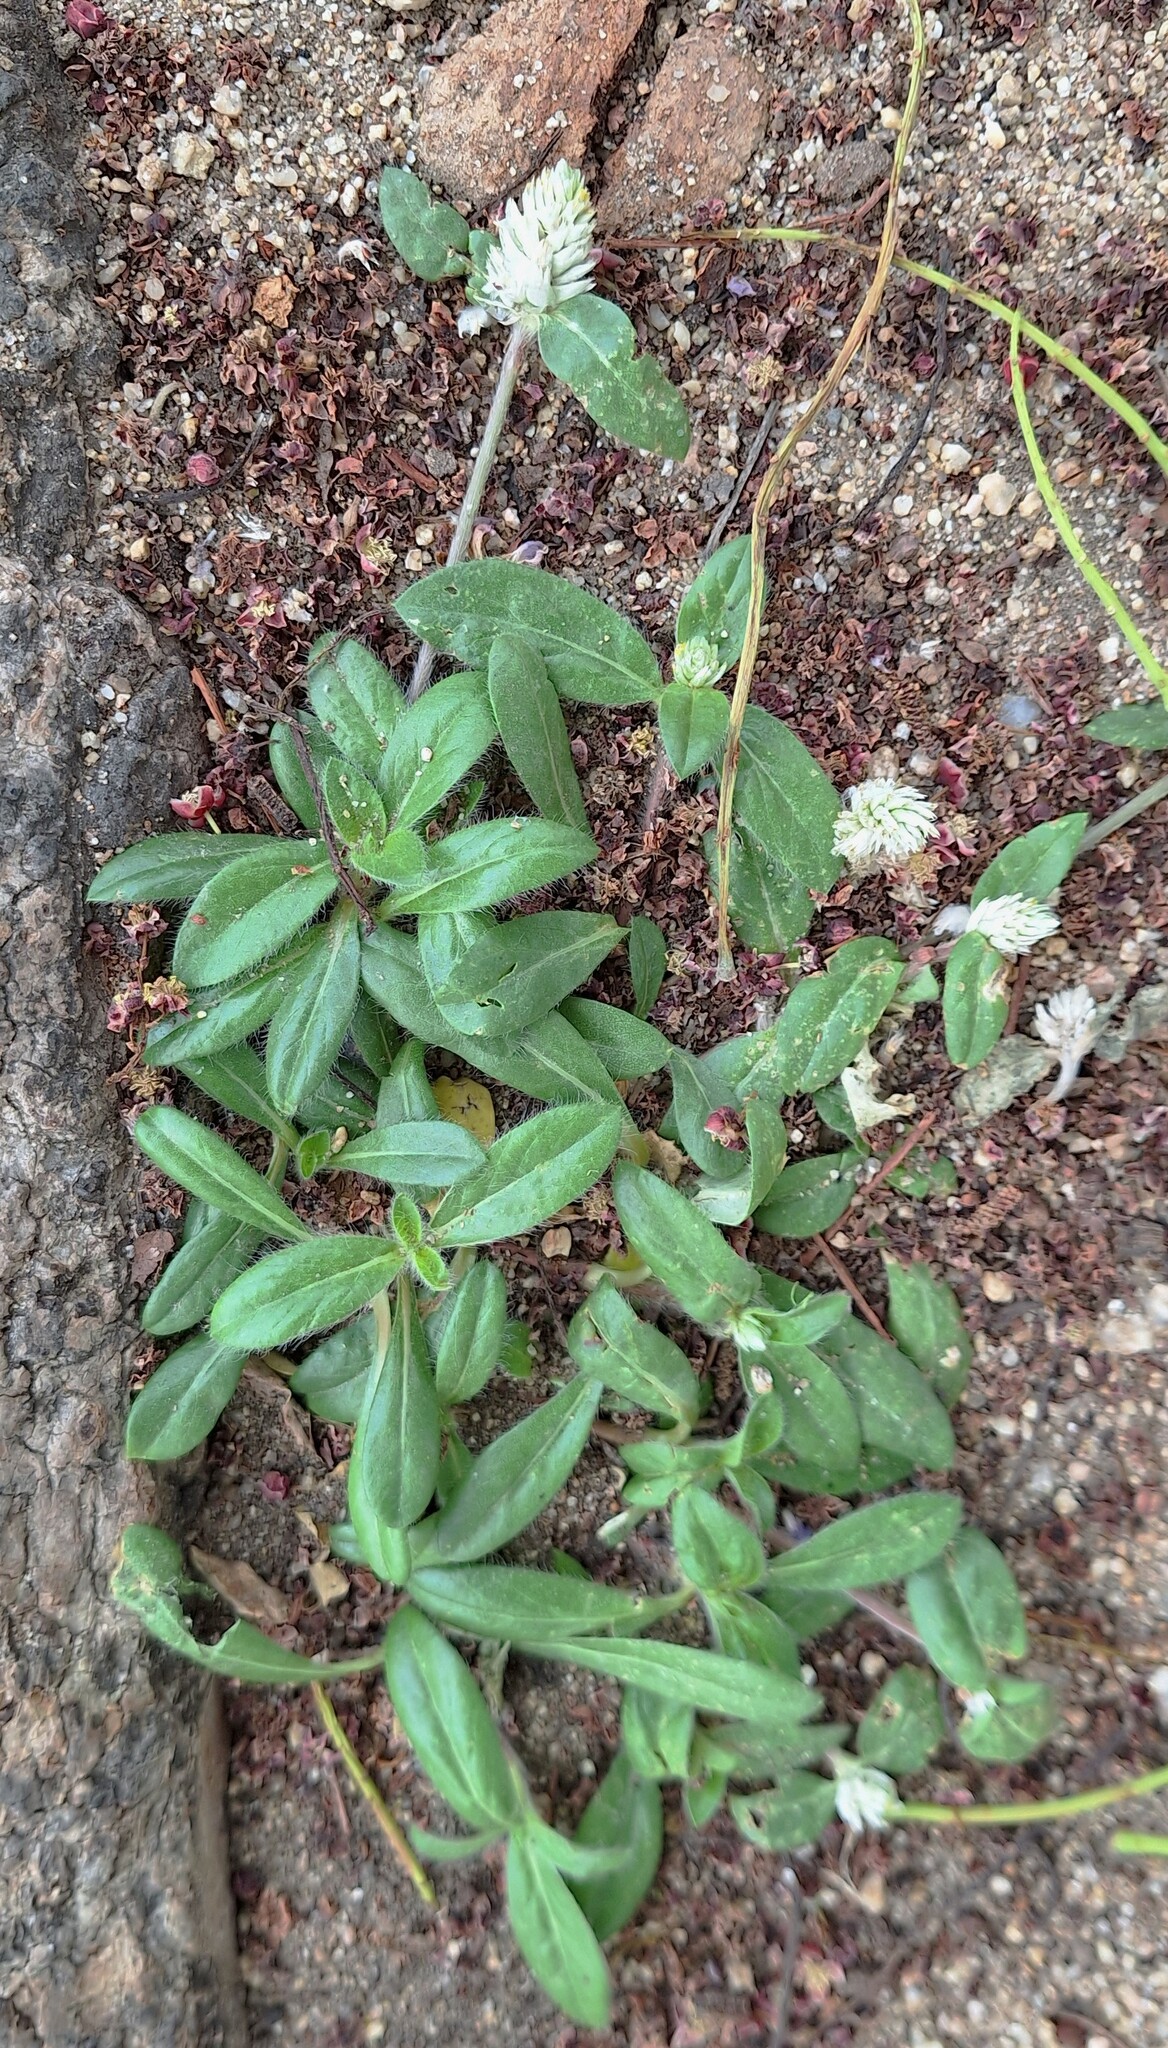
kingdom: Plantae
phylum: Tracheophyta
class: Magnoliopsida
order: Caryophyllales
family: Amaranthaceae
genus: Gomphrena
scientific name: Gomphrena celosioides
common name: Gomphrena-weed
